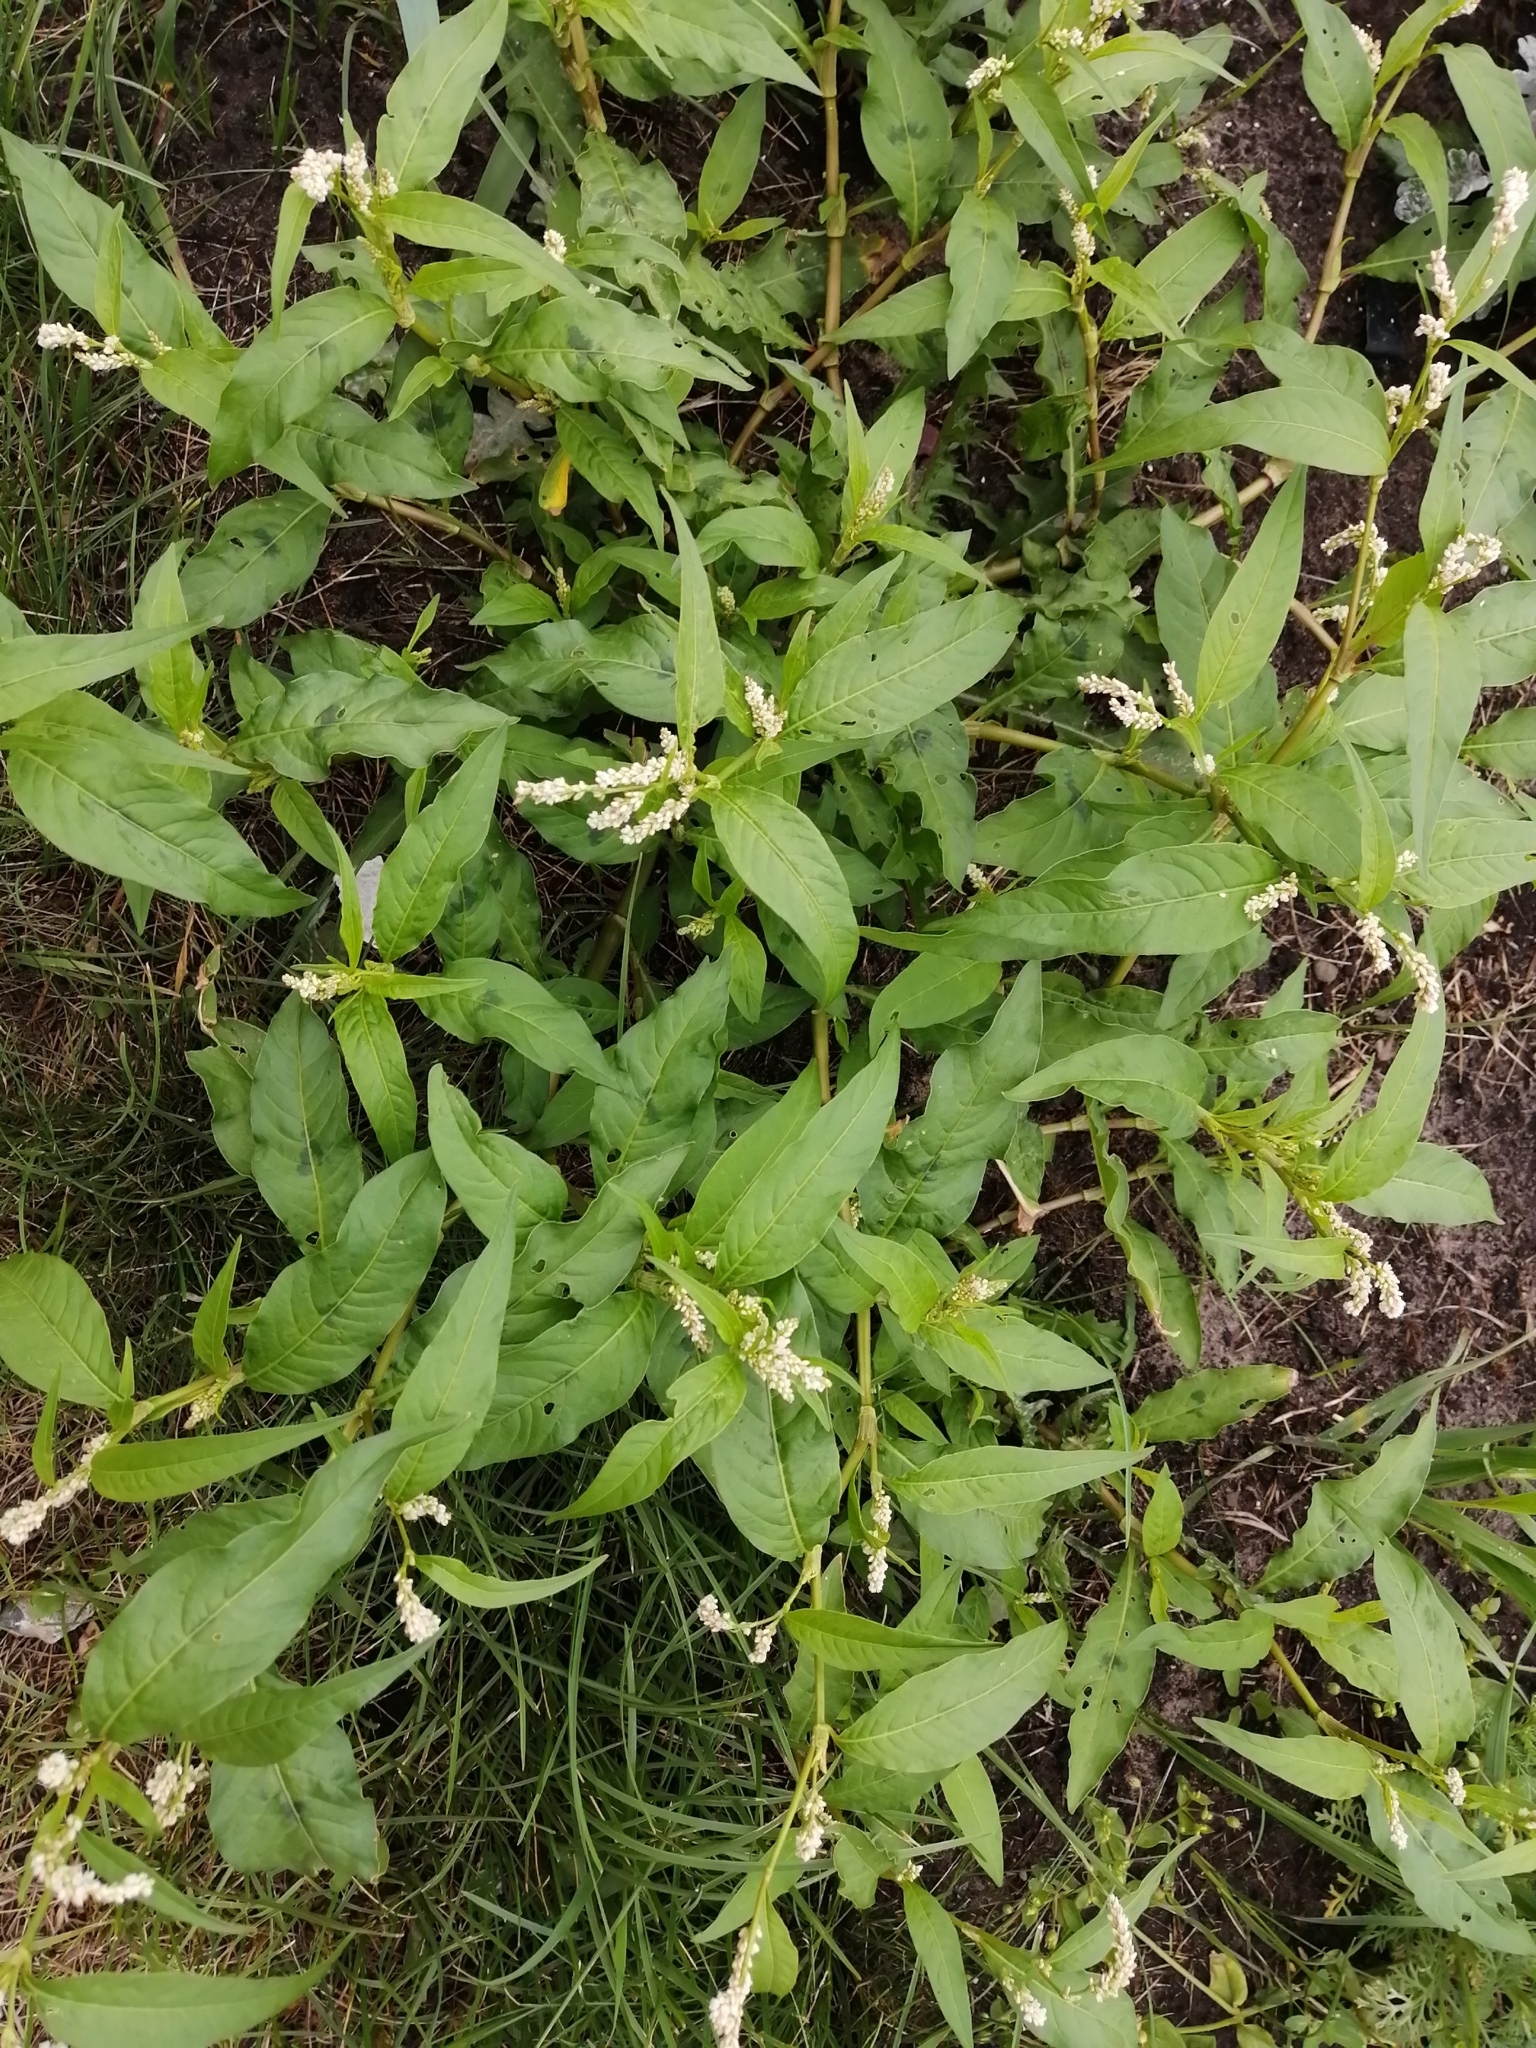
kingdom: Plantae
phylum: Tracheophyta
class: Magnoliopsida
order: Caryophyllales
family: Polygonaceae
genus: Persicaria
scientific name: Persicaria lapathifolia
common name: Curlytop knotweed
